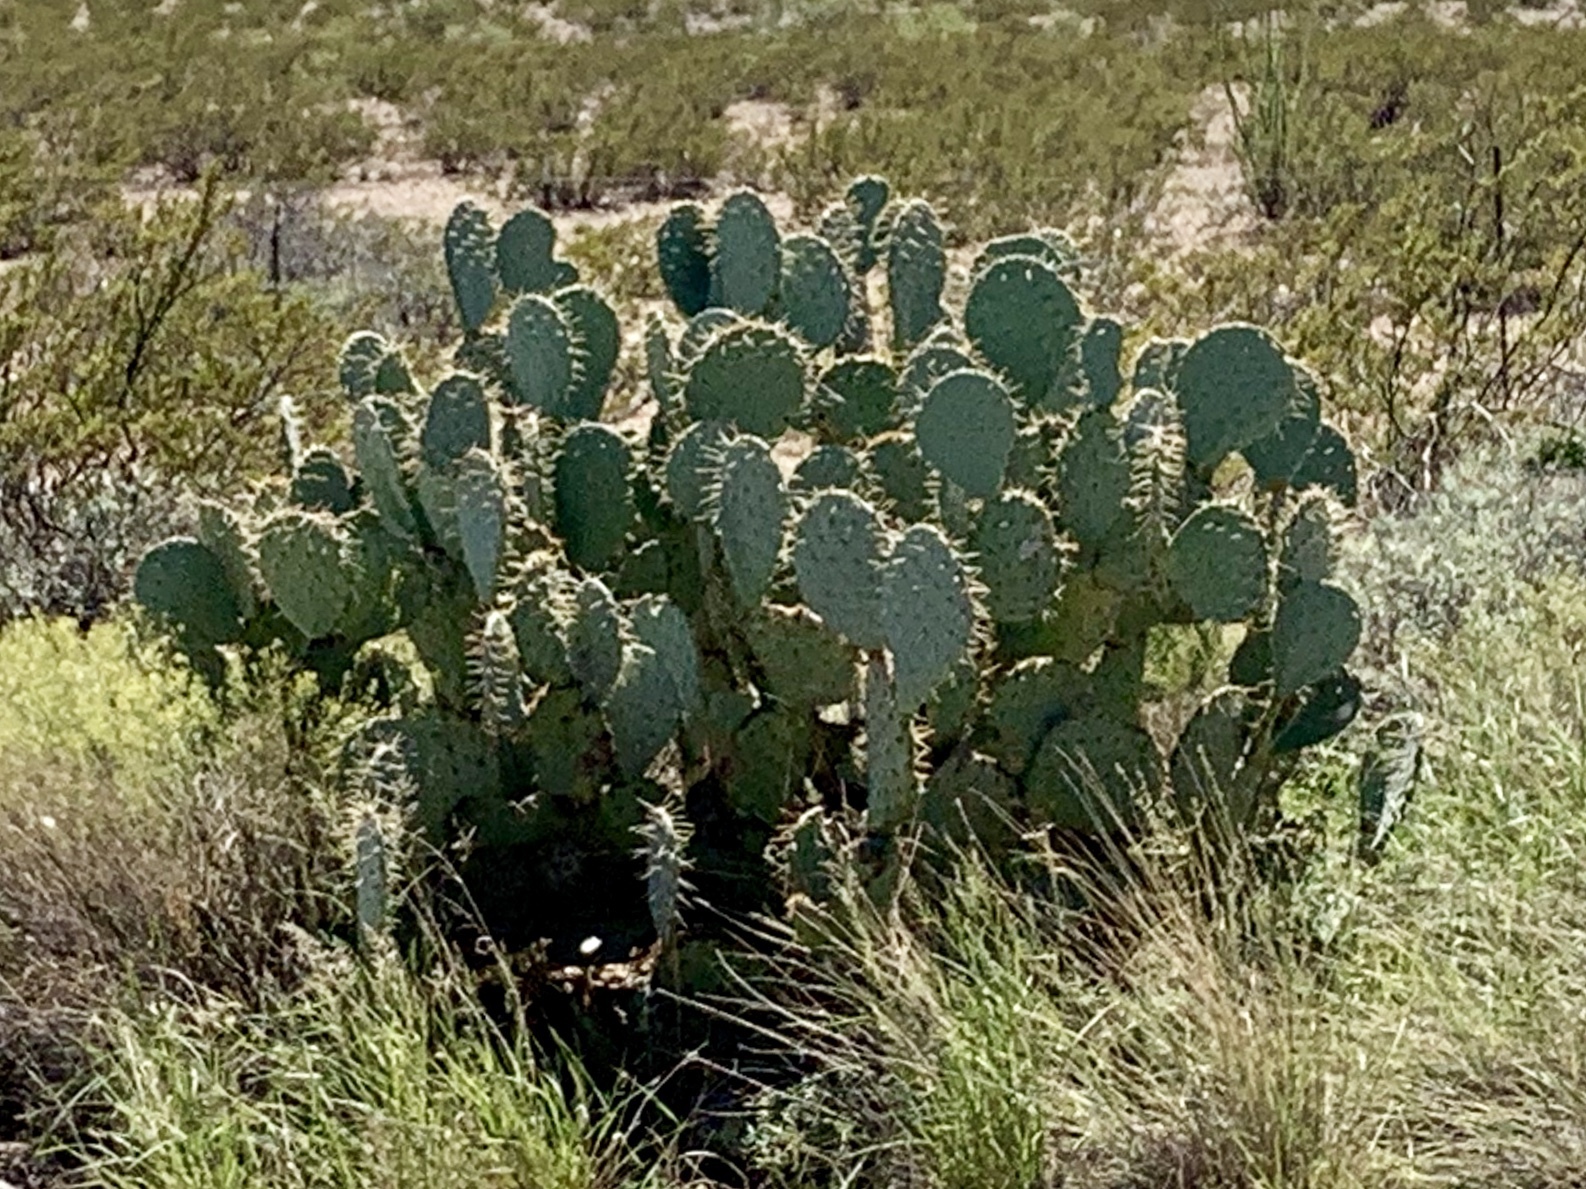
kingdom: Plantae
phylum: Tracheophyta
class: Magnoliopsida
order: Caryophyllales
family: Cactaceae
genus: Opuntia
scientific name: Opuntia engelmannii
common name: Cactus-apple
